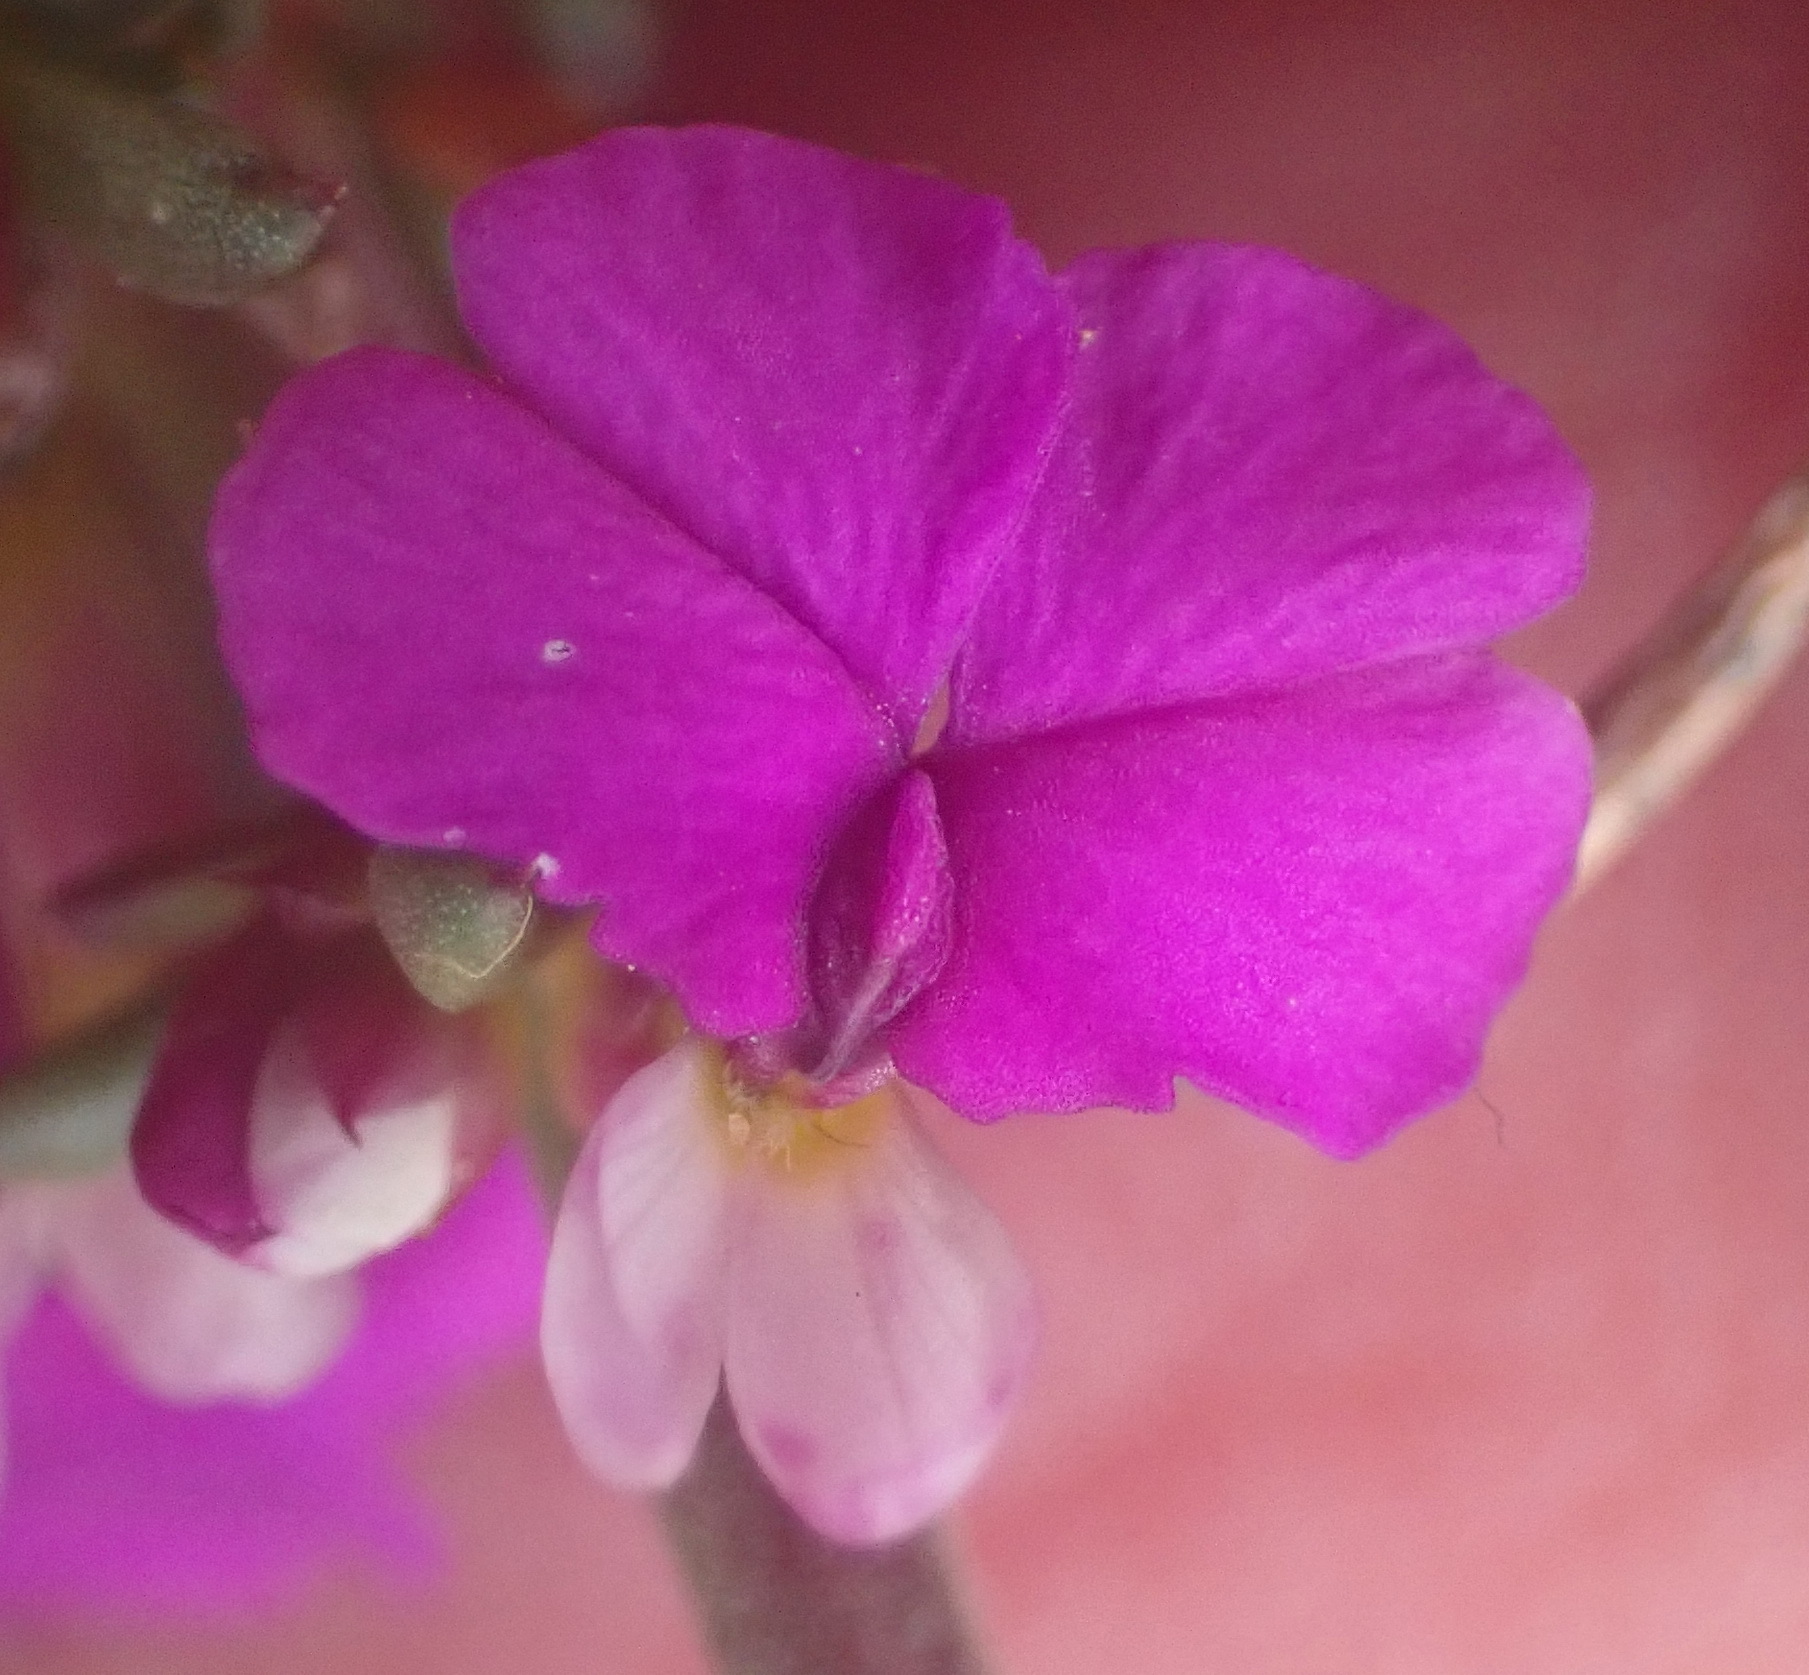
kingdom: Plantae
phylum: Tracheophyta
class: Magnoliopsida
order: Fabales
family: Polygalaceae
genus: Muraltia
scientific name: Muraltia heisteria
